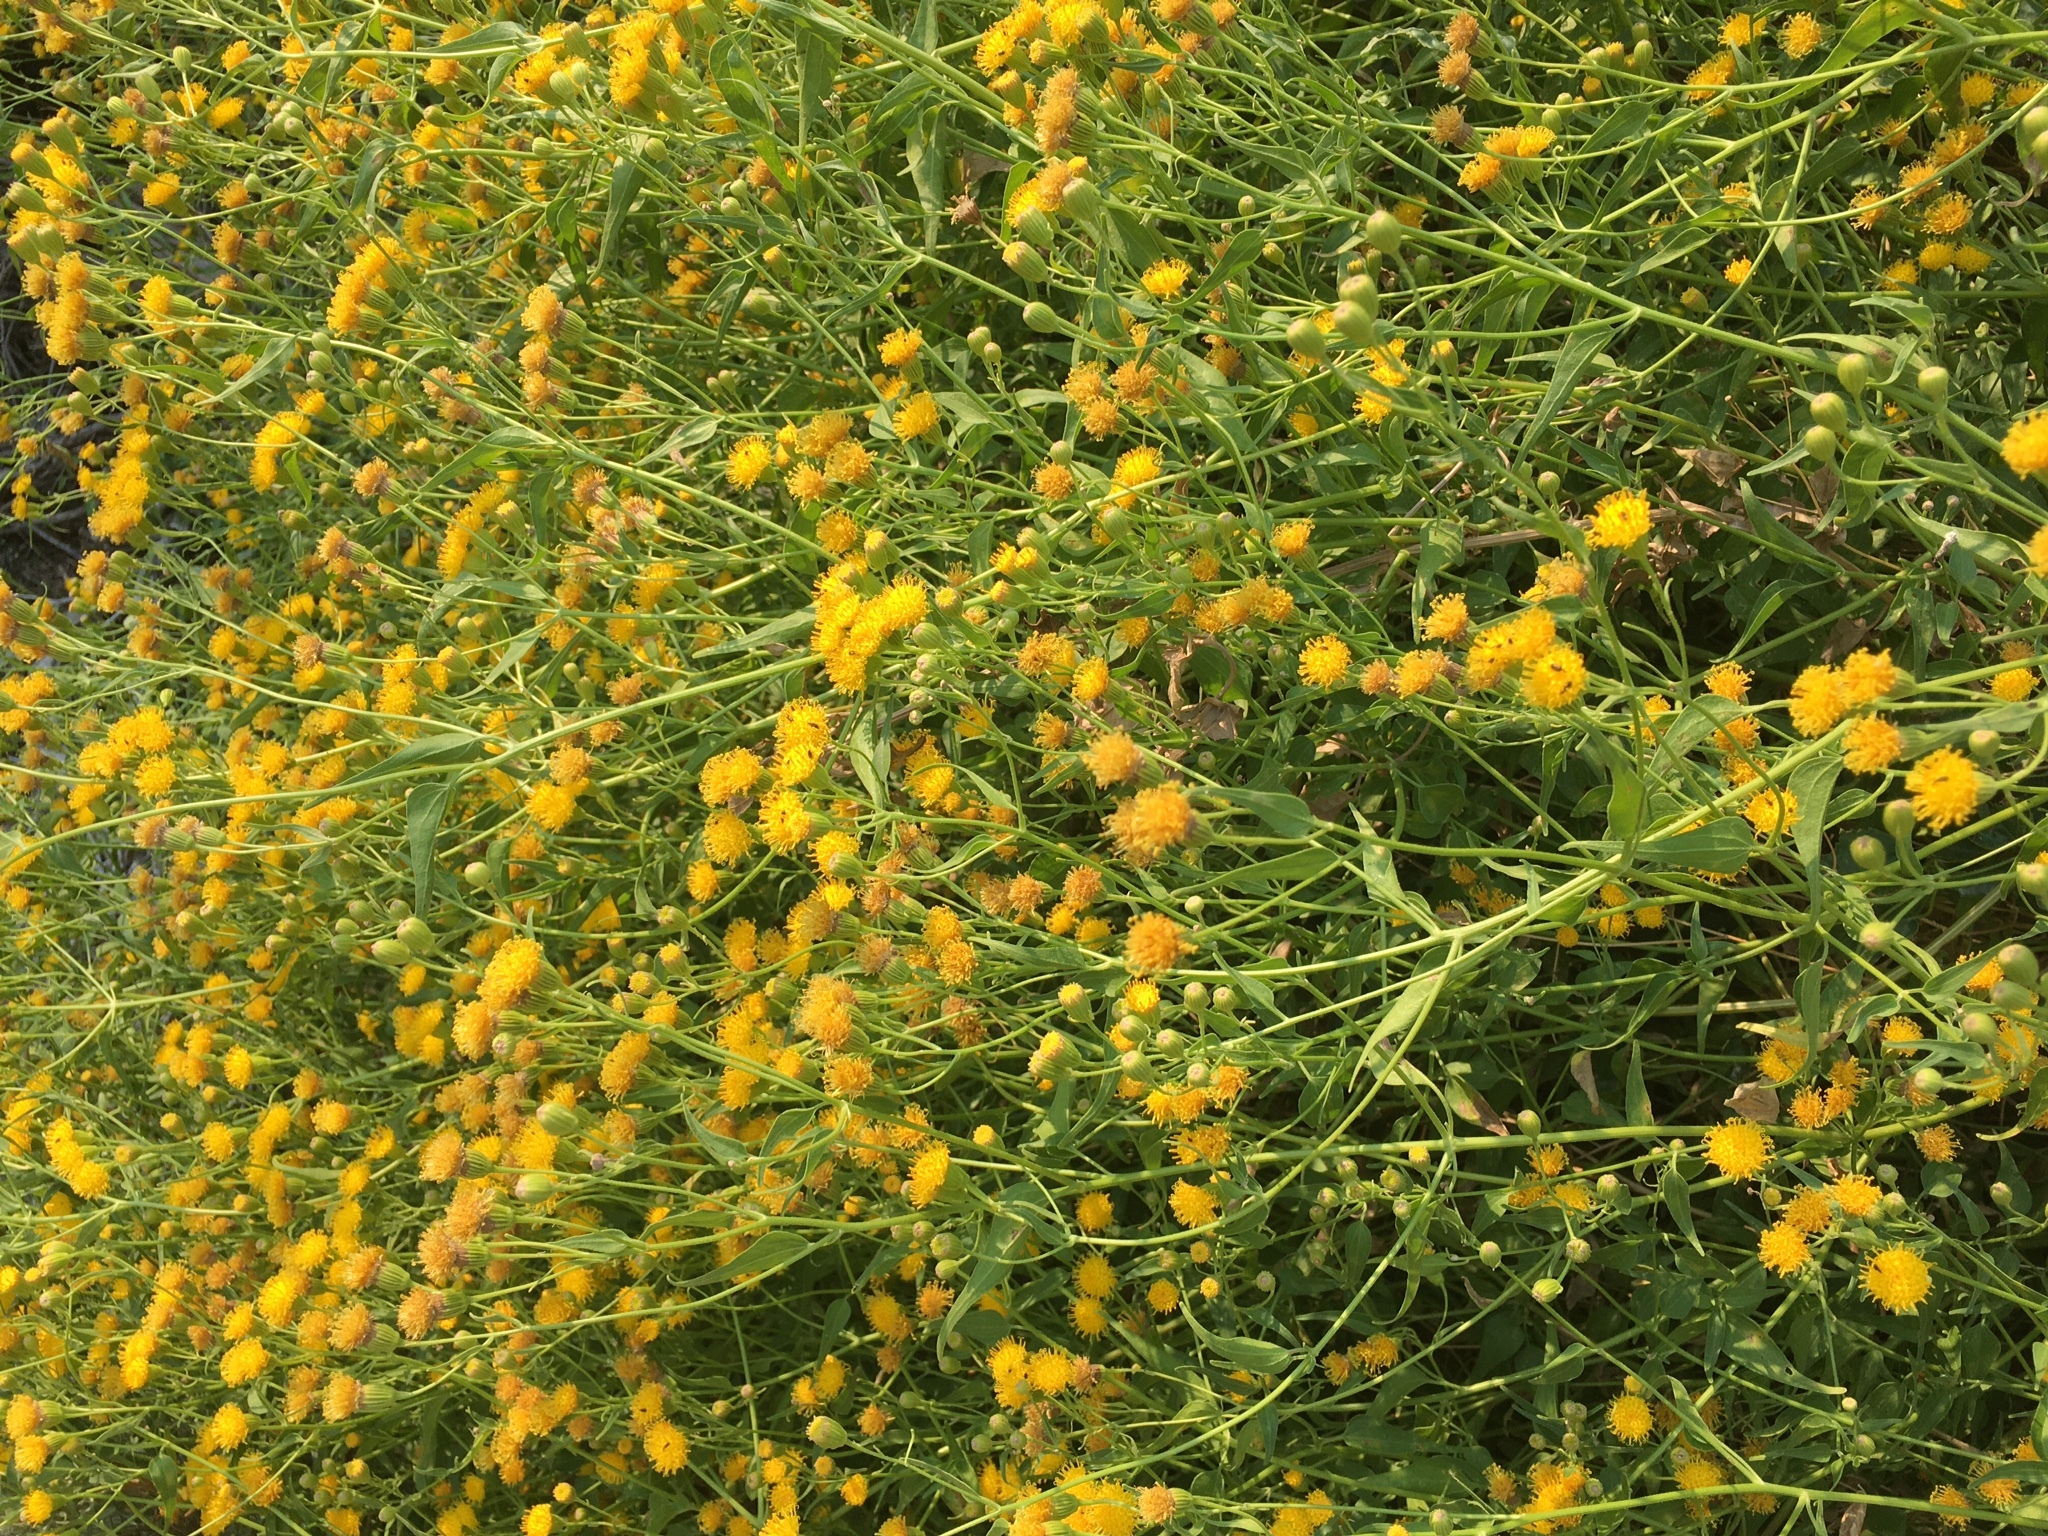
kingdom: Plantae
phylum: Tracheophyta
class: Magnoliopsida
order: Asterales
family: Asteraceae
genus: Pericome
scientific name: Pericome caudata
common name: Taperleaf
